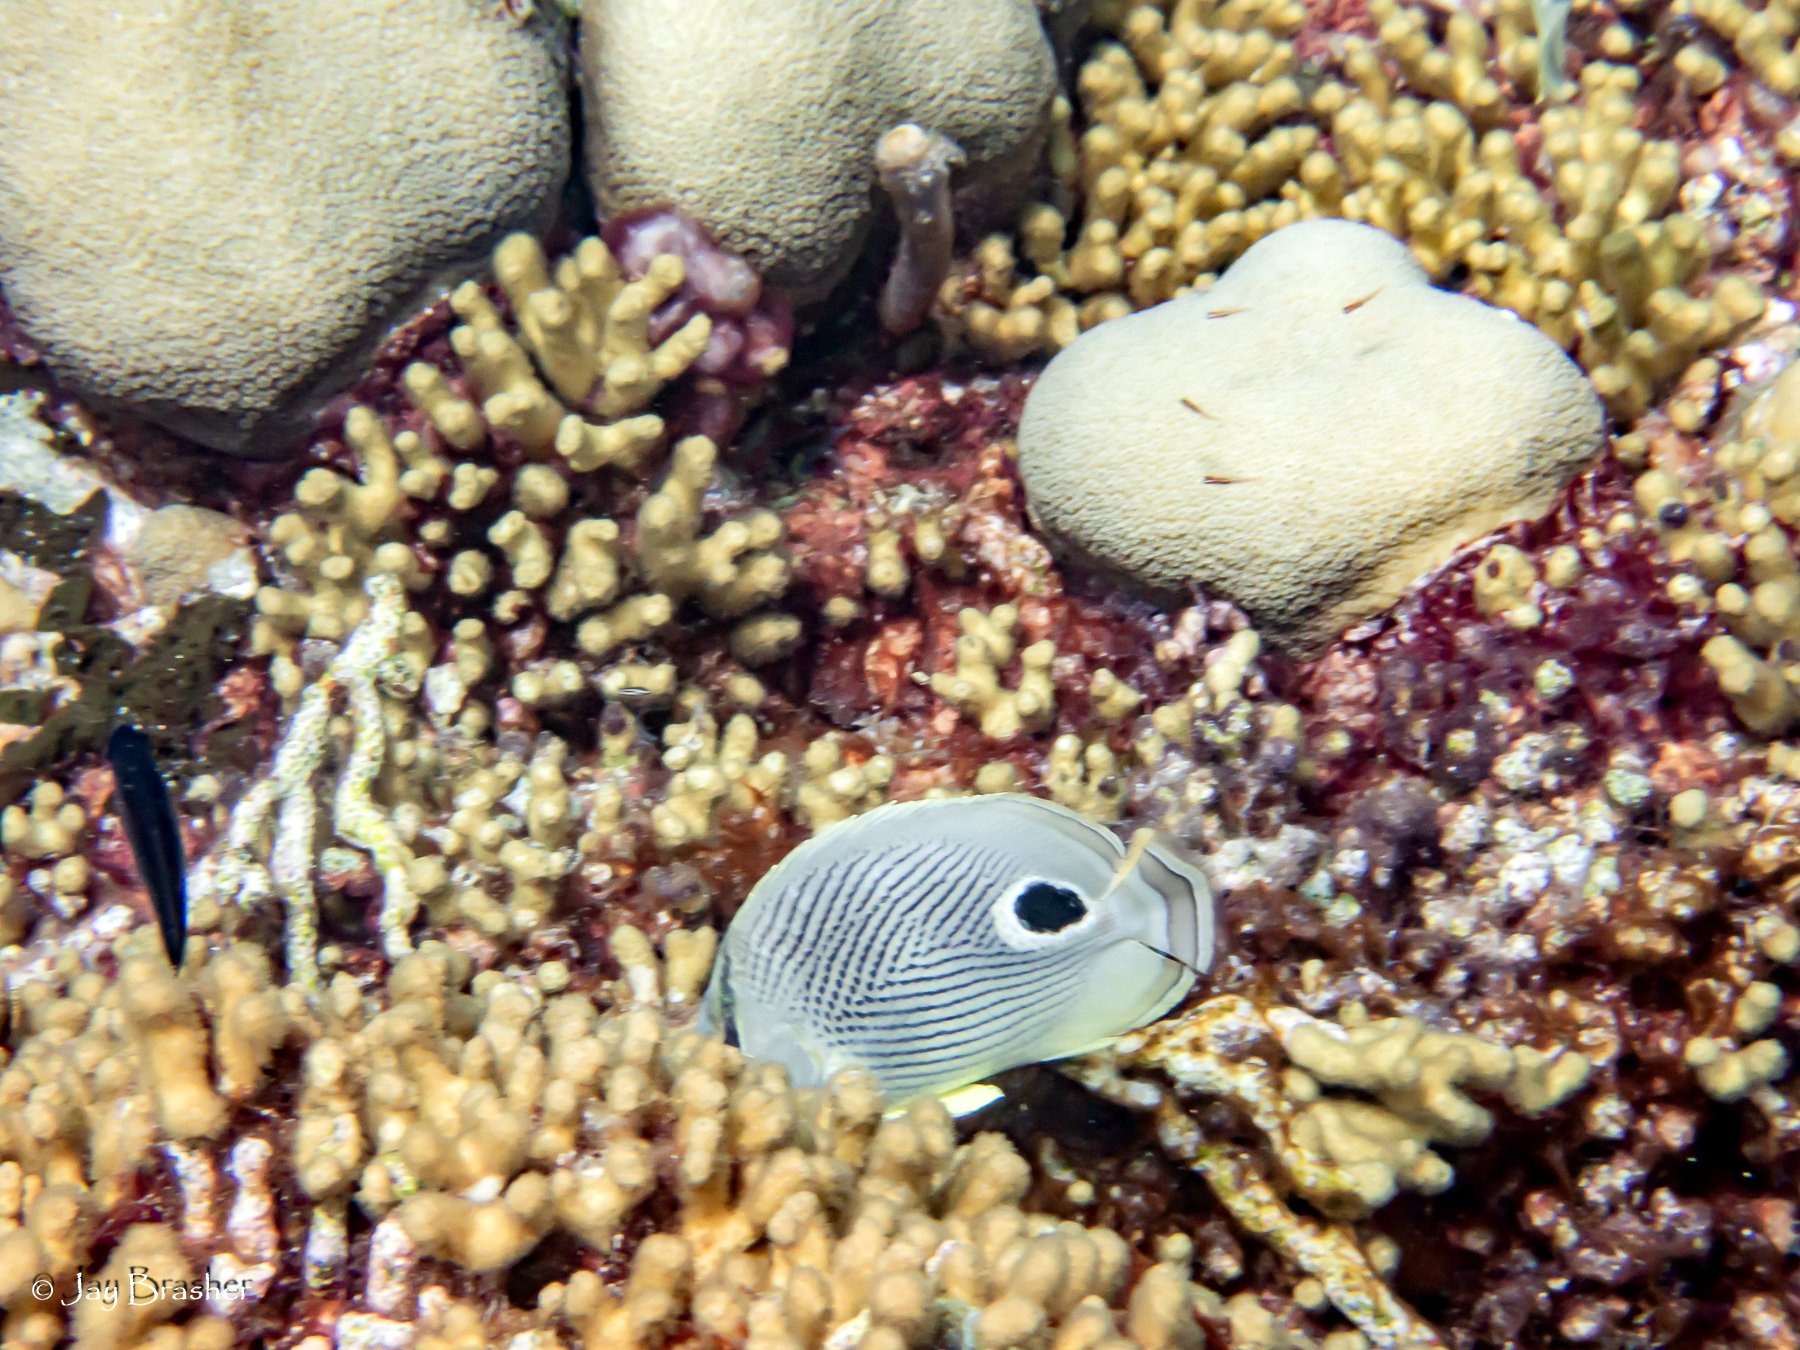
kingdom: Animalia
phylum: Cnidaria
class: Anthozoa
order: Scleractinia
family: Pocilloporidae
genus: Madracis
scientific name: Madracis auretenra
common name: Yellow pencil coral
